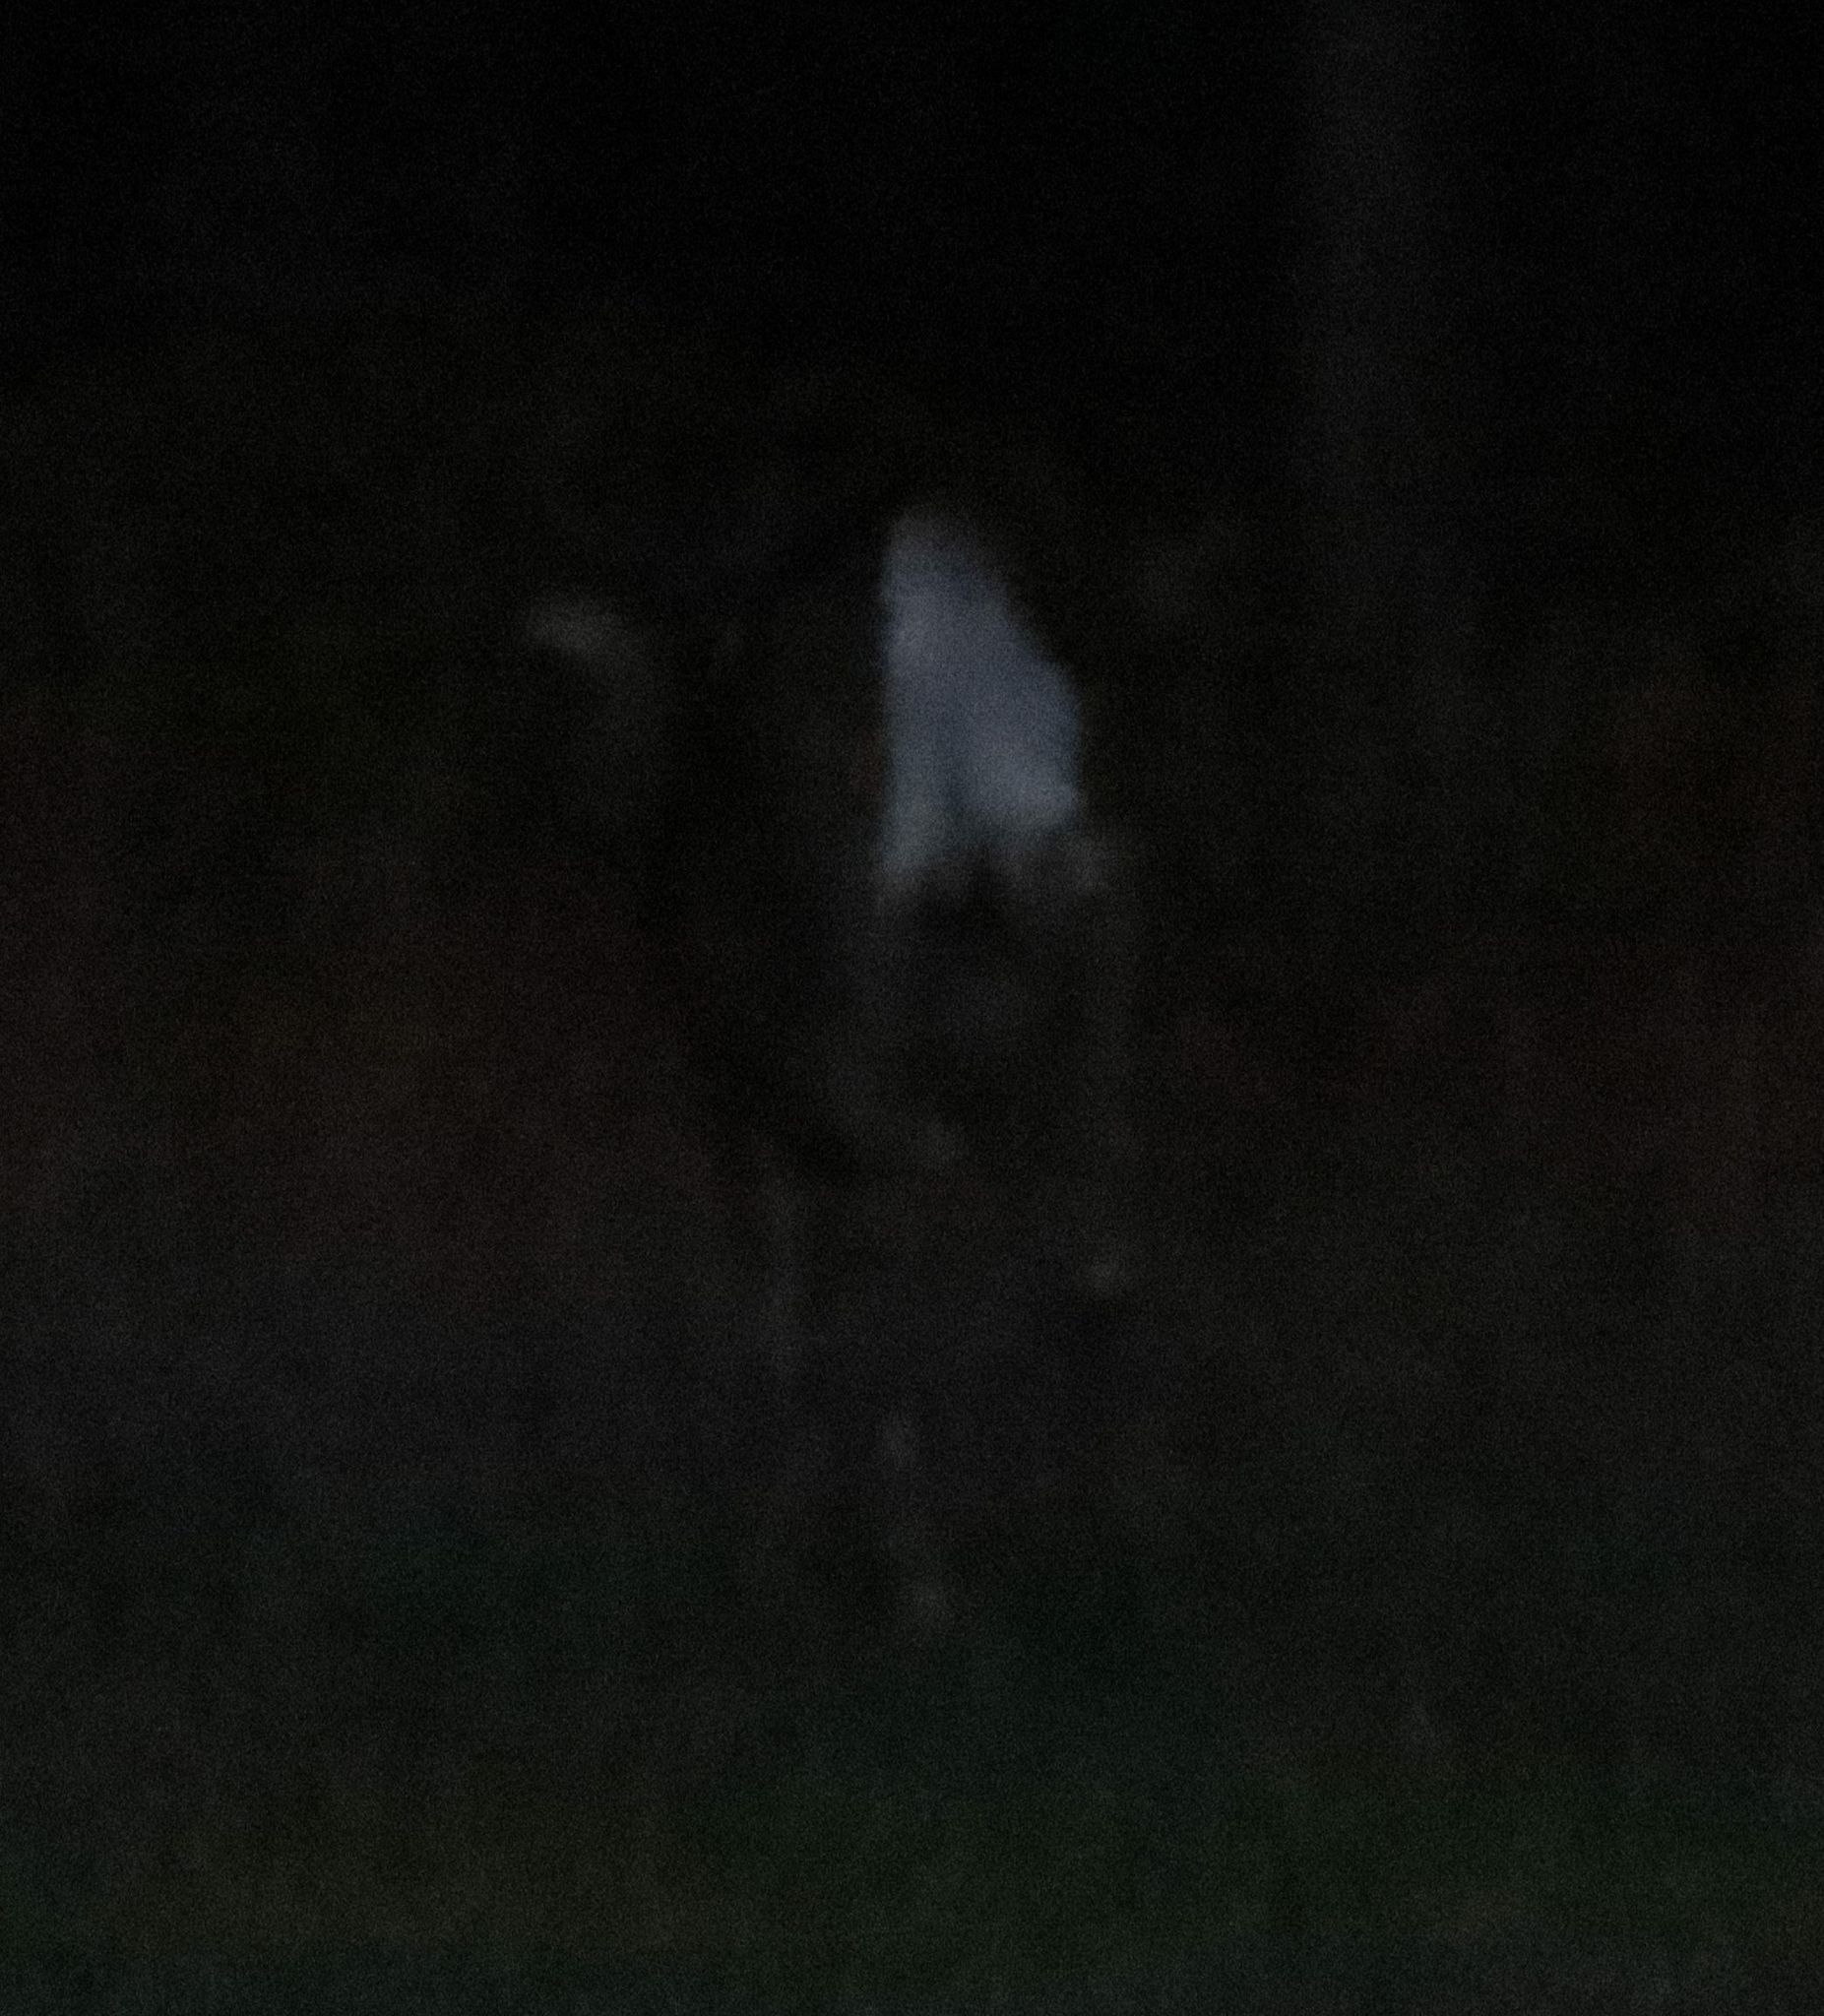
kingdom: Animalia
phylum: Chordata
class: Mammalia
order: Artiodactyla
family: Cervidae
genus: Odocoileus
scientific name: Odocoileus virginianus
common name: White-tailed deer
